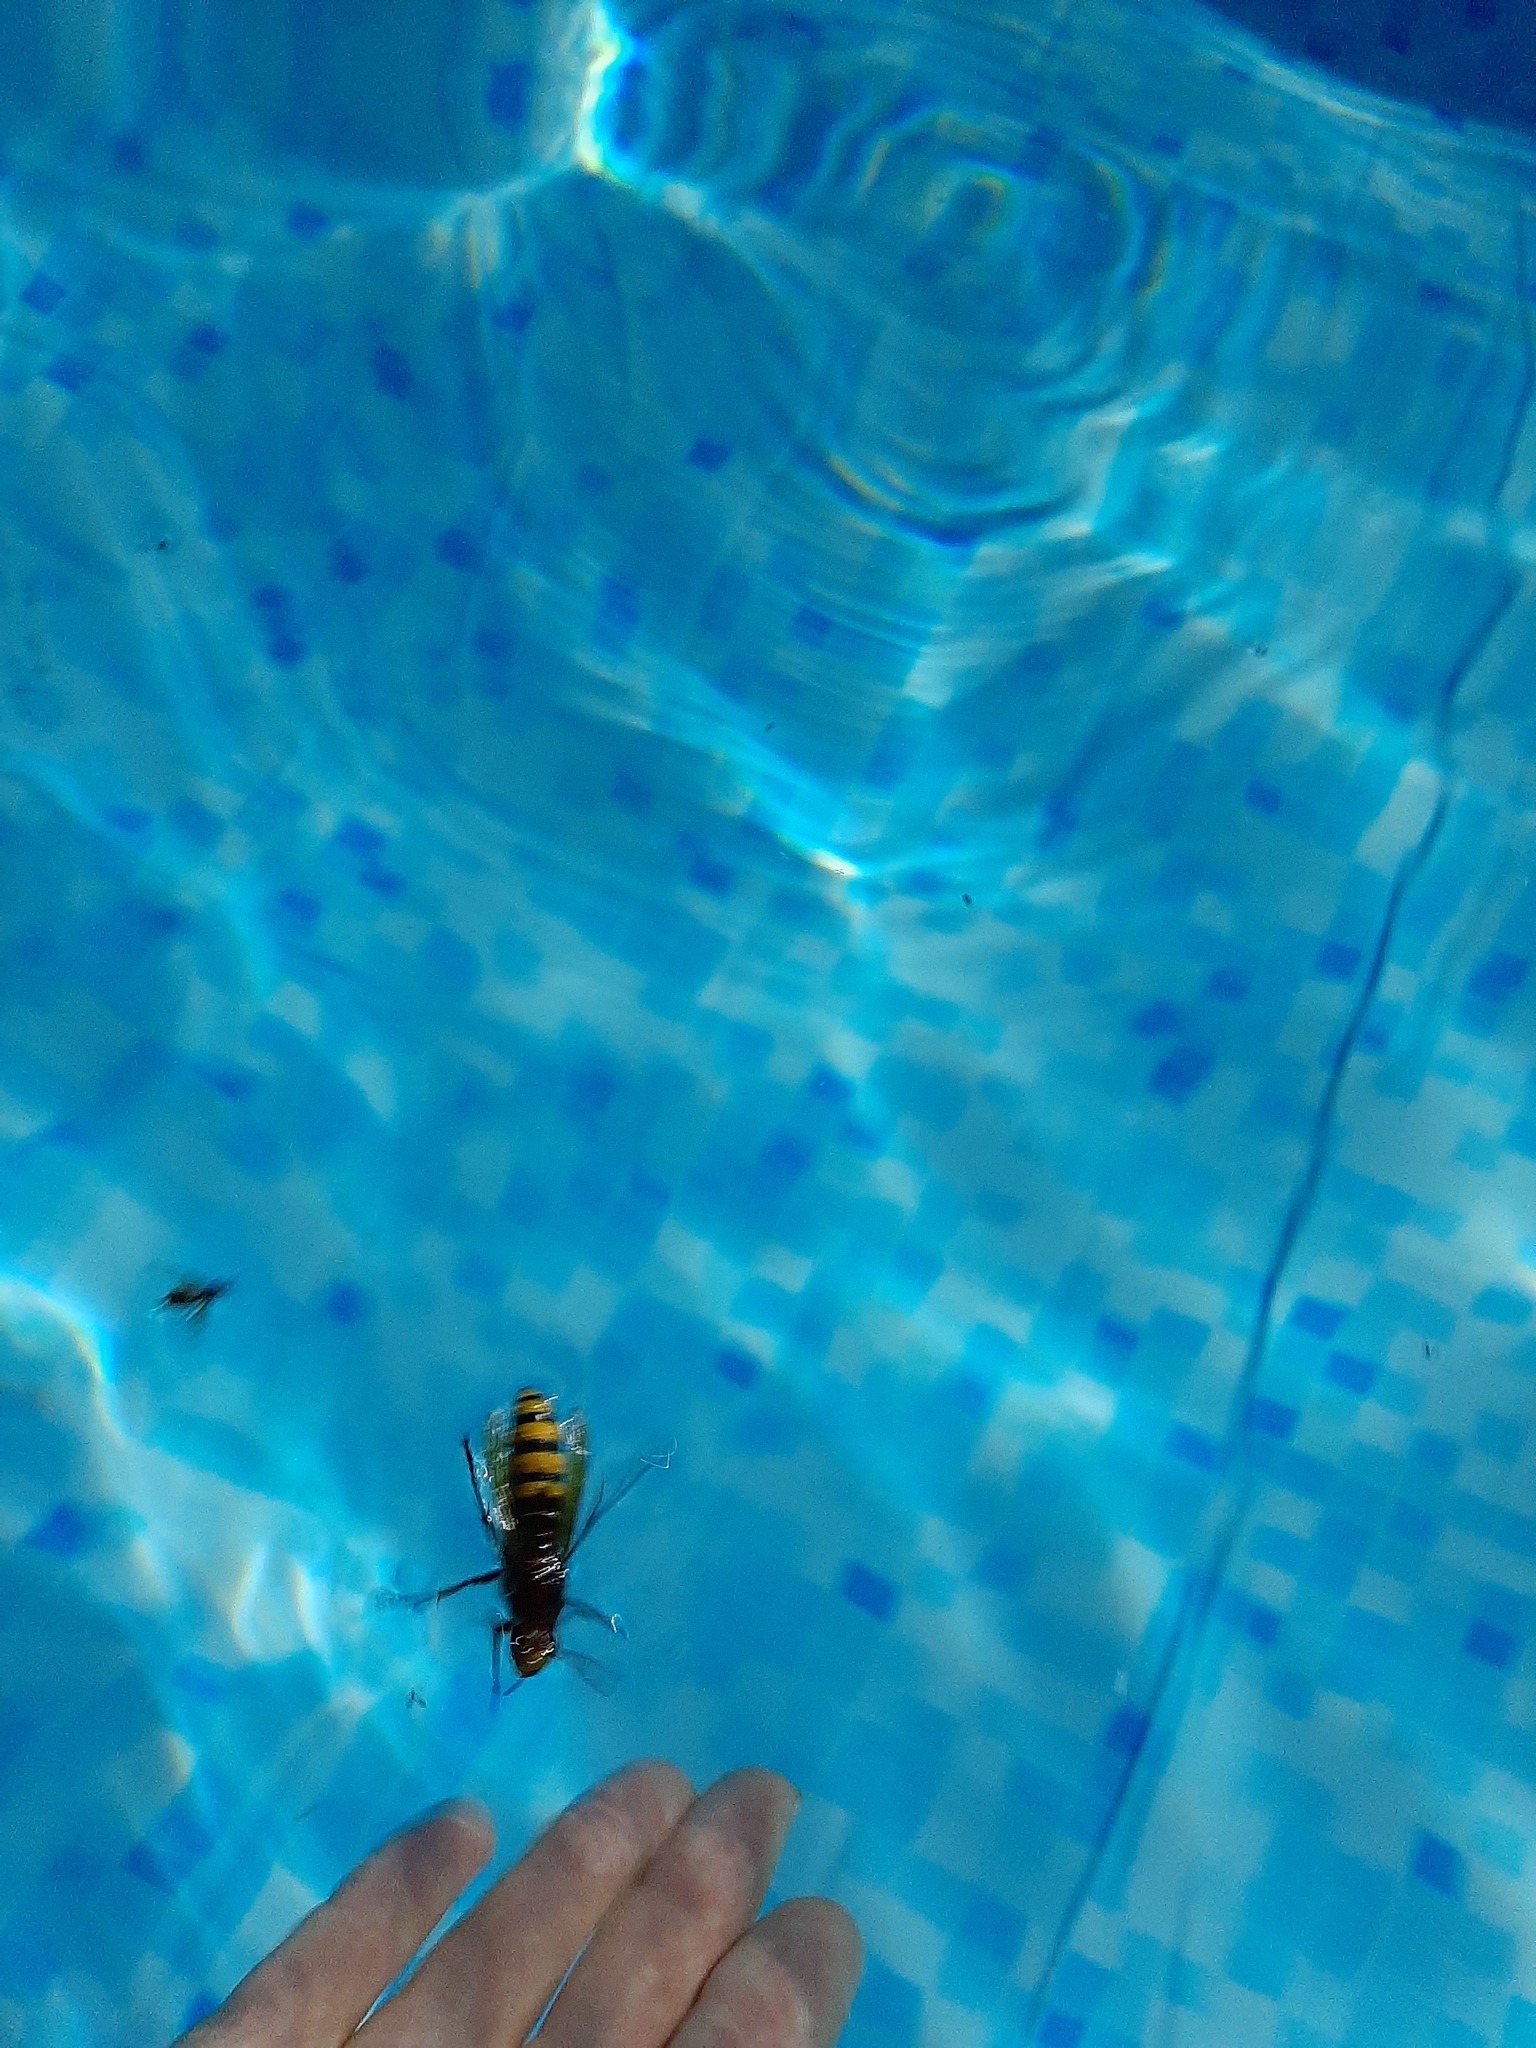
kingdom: Animalia
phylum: Arthropoda
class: Insecta
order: Hymenoptera
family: Vespidae
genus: Vespa
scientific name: Vespa crabro
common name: Hornet
